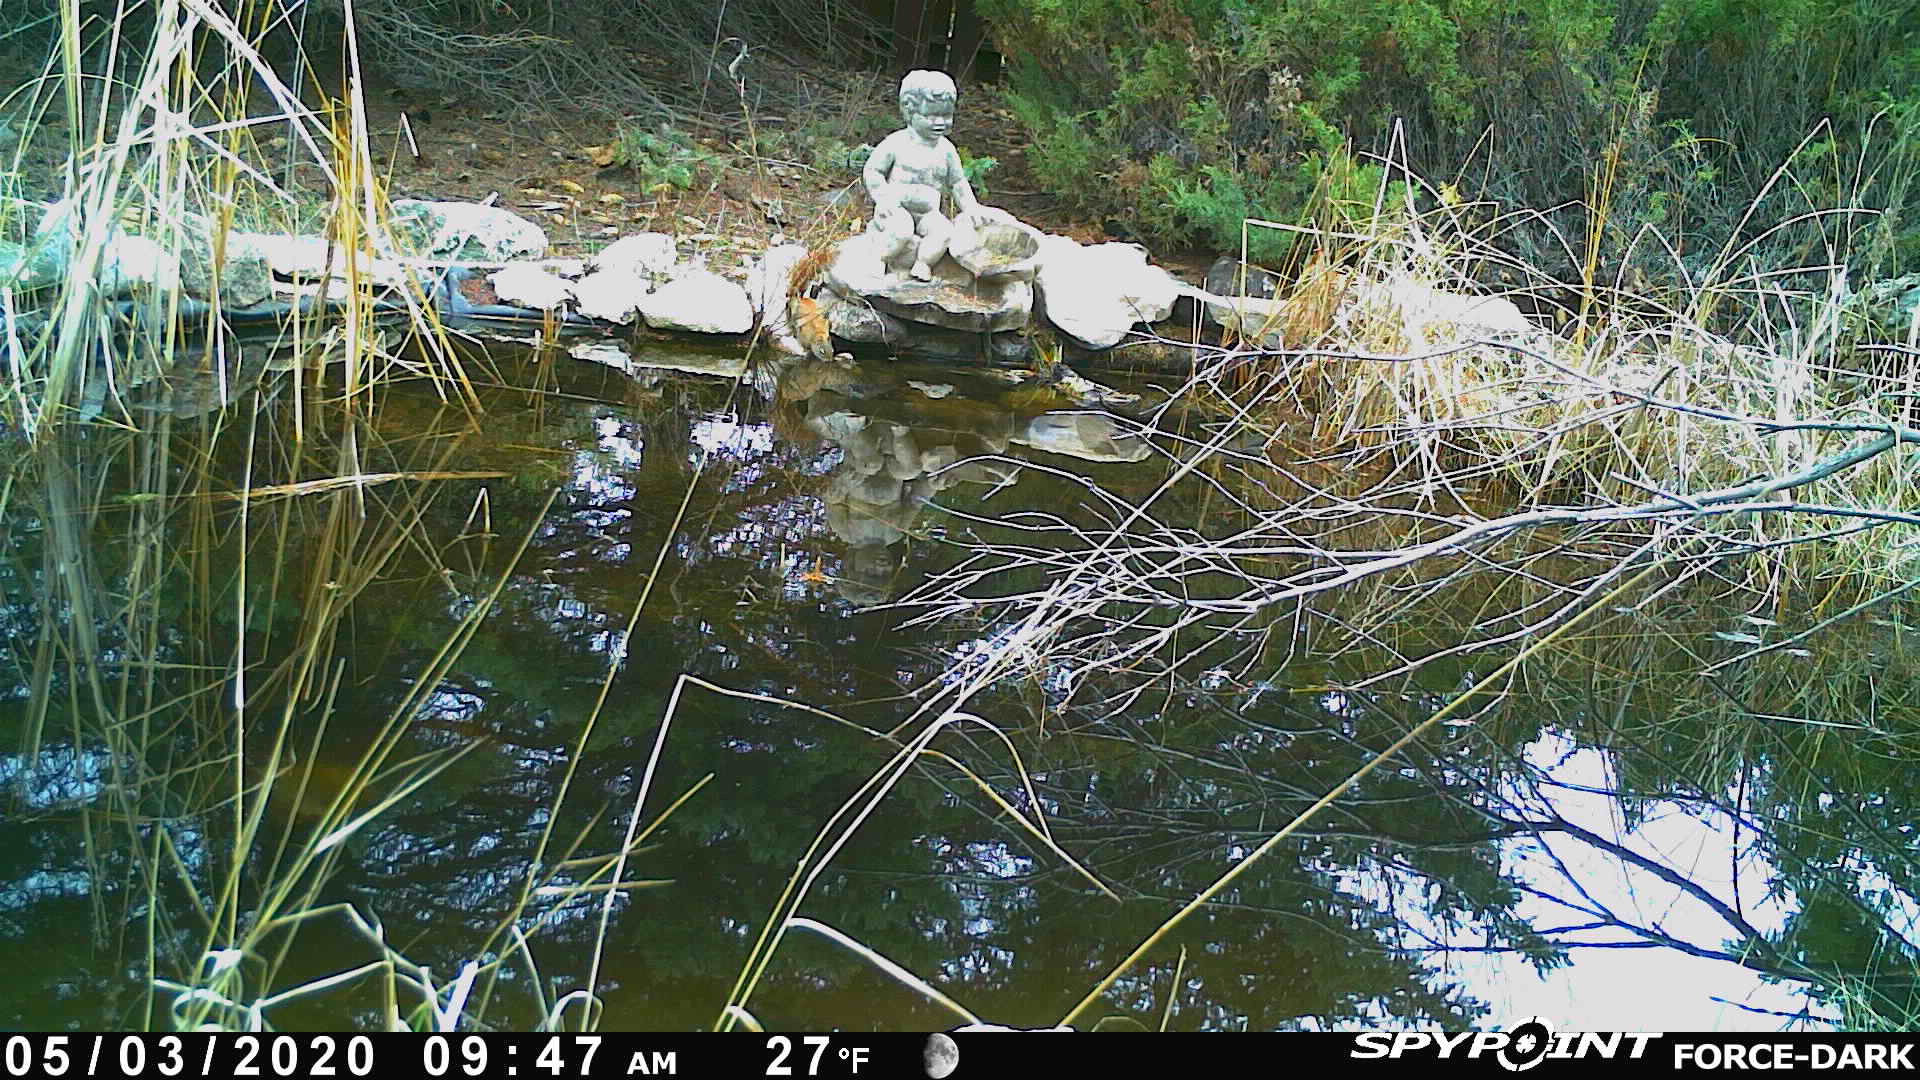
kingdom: Animalia
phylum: Chordata
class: Mammalia
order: Rodentia
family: Sciuridae
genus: Tamiasciurus
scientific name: Tamiasciurus hudsonicus
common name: Red squirrel
